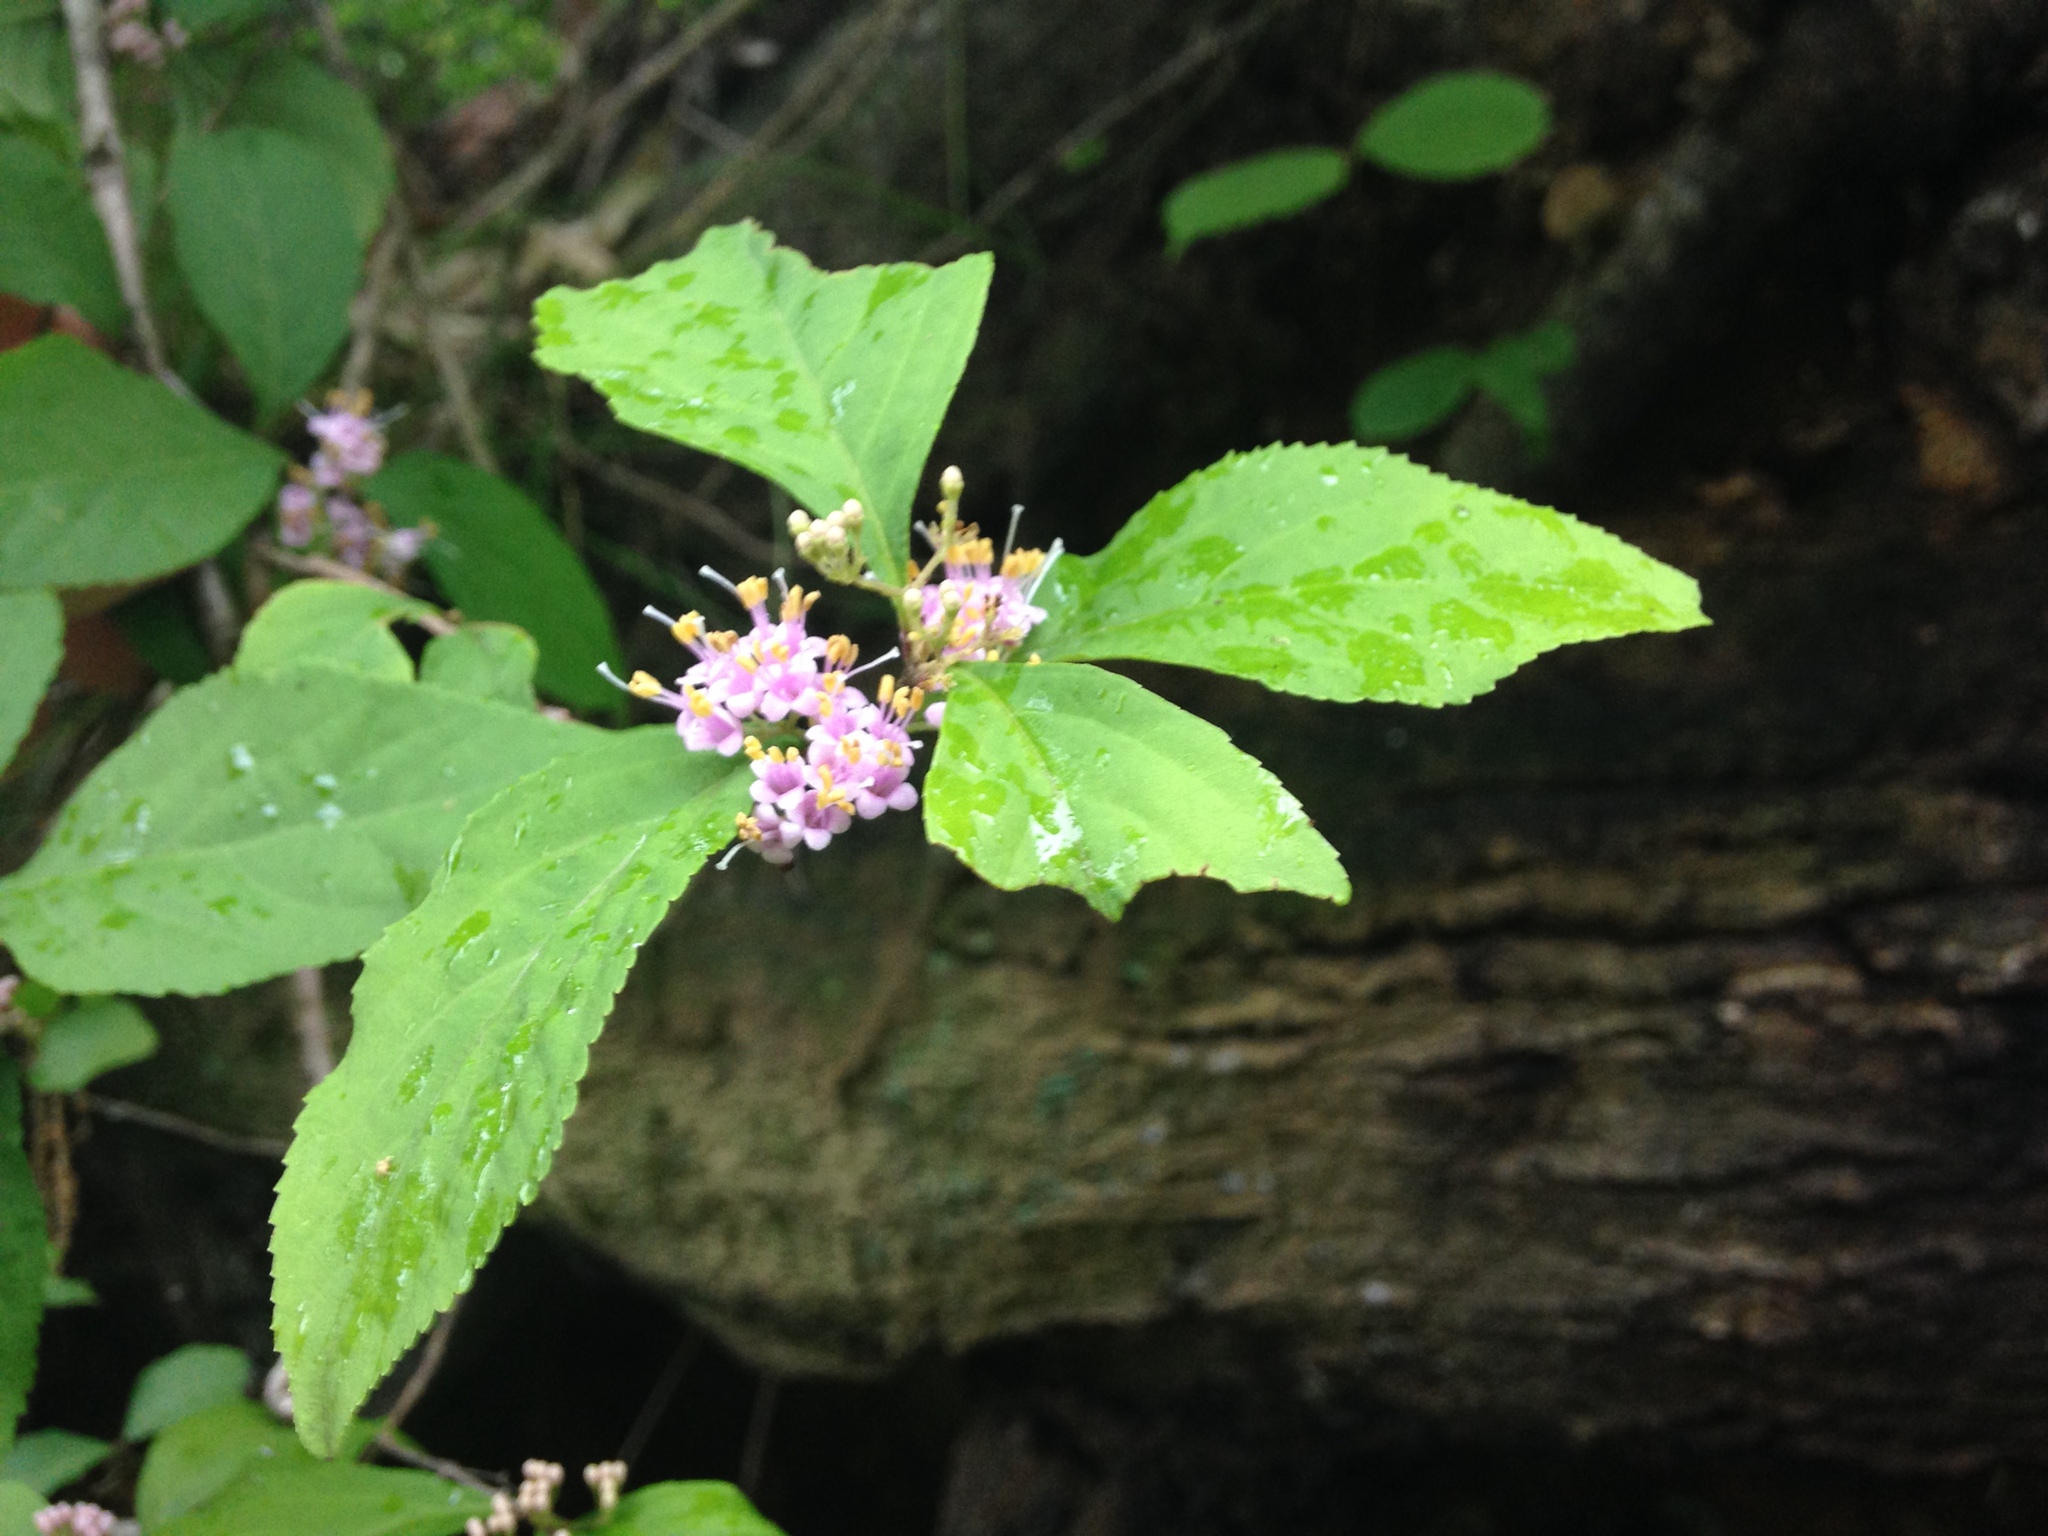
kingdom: Plantae
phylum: Tracheophyta
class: Magnoliopsida
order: Lamiales
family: Lamiaceae
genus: Callicarpa
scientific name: Callicarpa japonica
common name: Japanese beauty-berry
